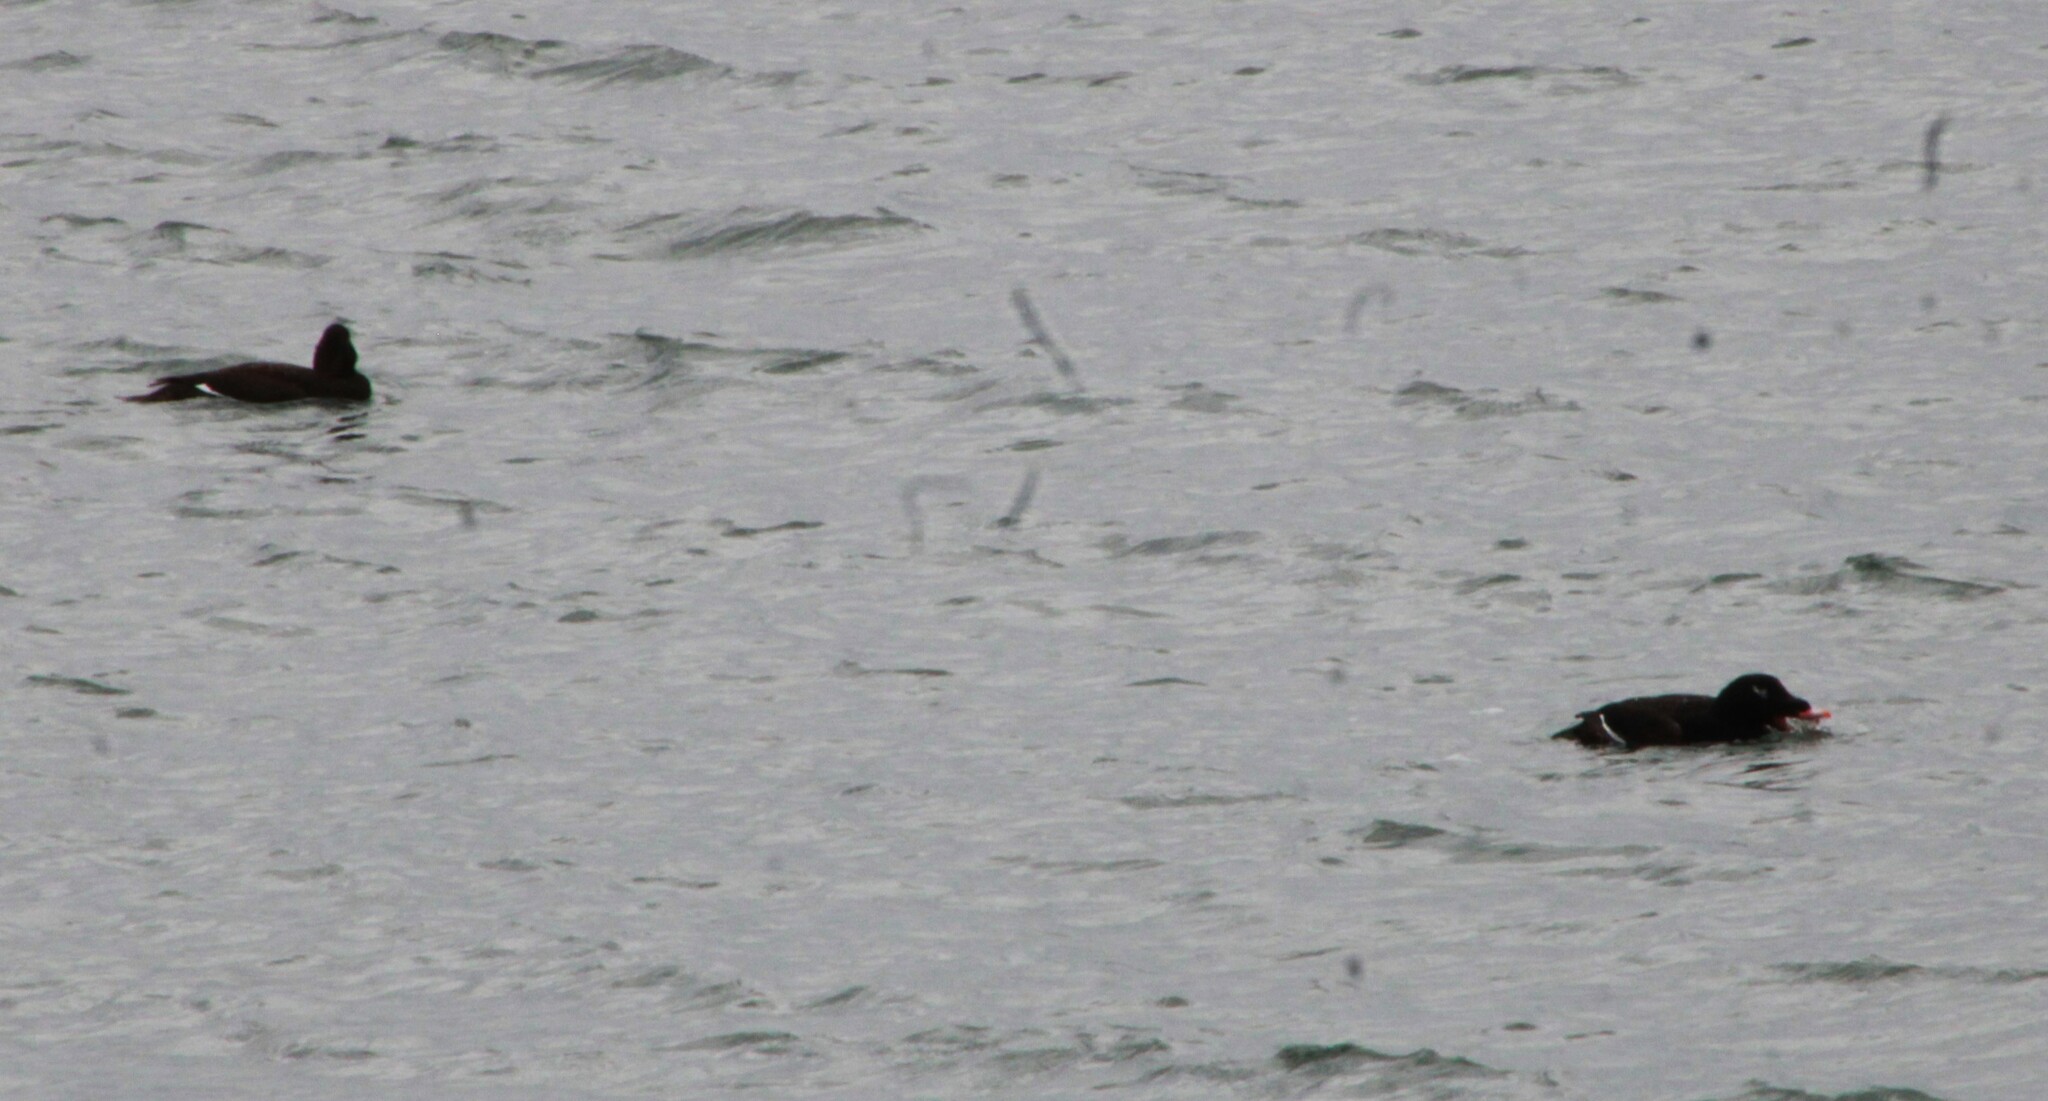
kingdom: Animalia
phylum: Chordata
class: Aves
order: Anseriformes
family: Anatidae
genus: Melanitta
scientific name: Melanitta deglandi
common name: White-winged scoter
